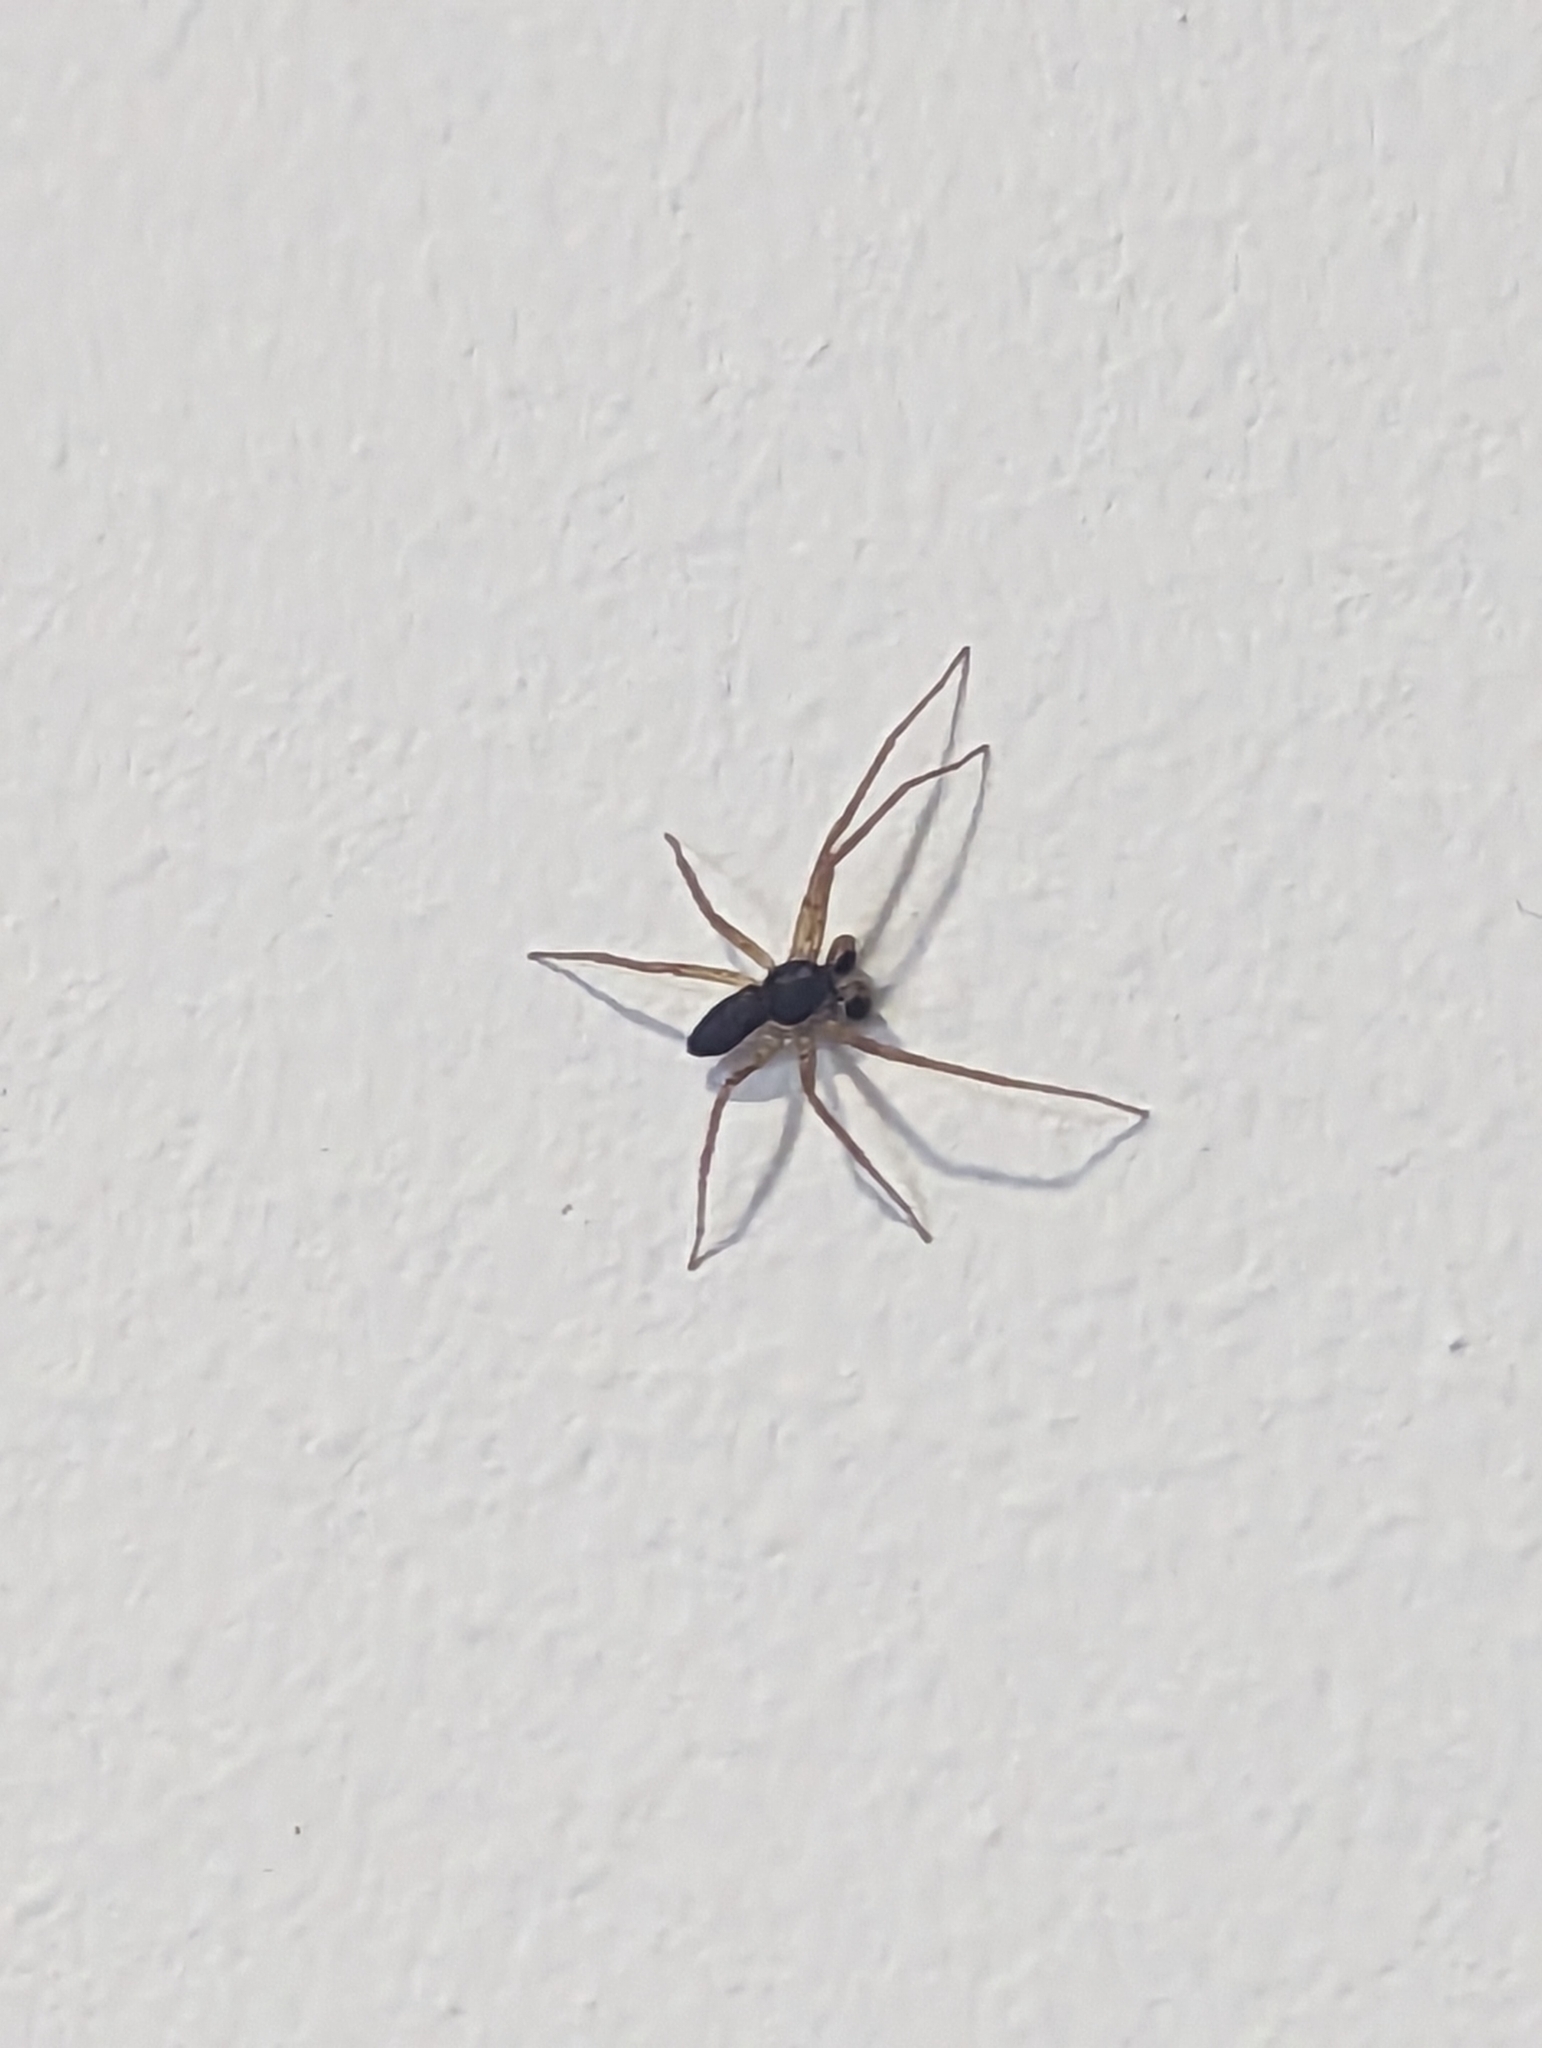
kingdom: Animalia
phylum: Arthropoda
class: Arachnida
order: Araneae
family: Philodromidae
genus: Philodromus
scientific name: Philodromus dispar
